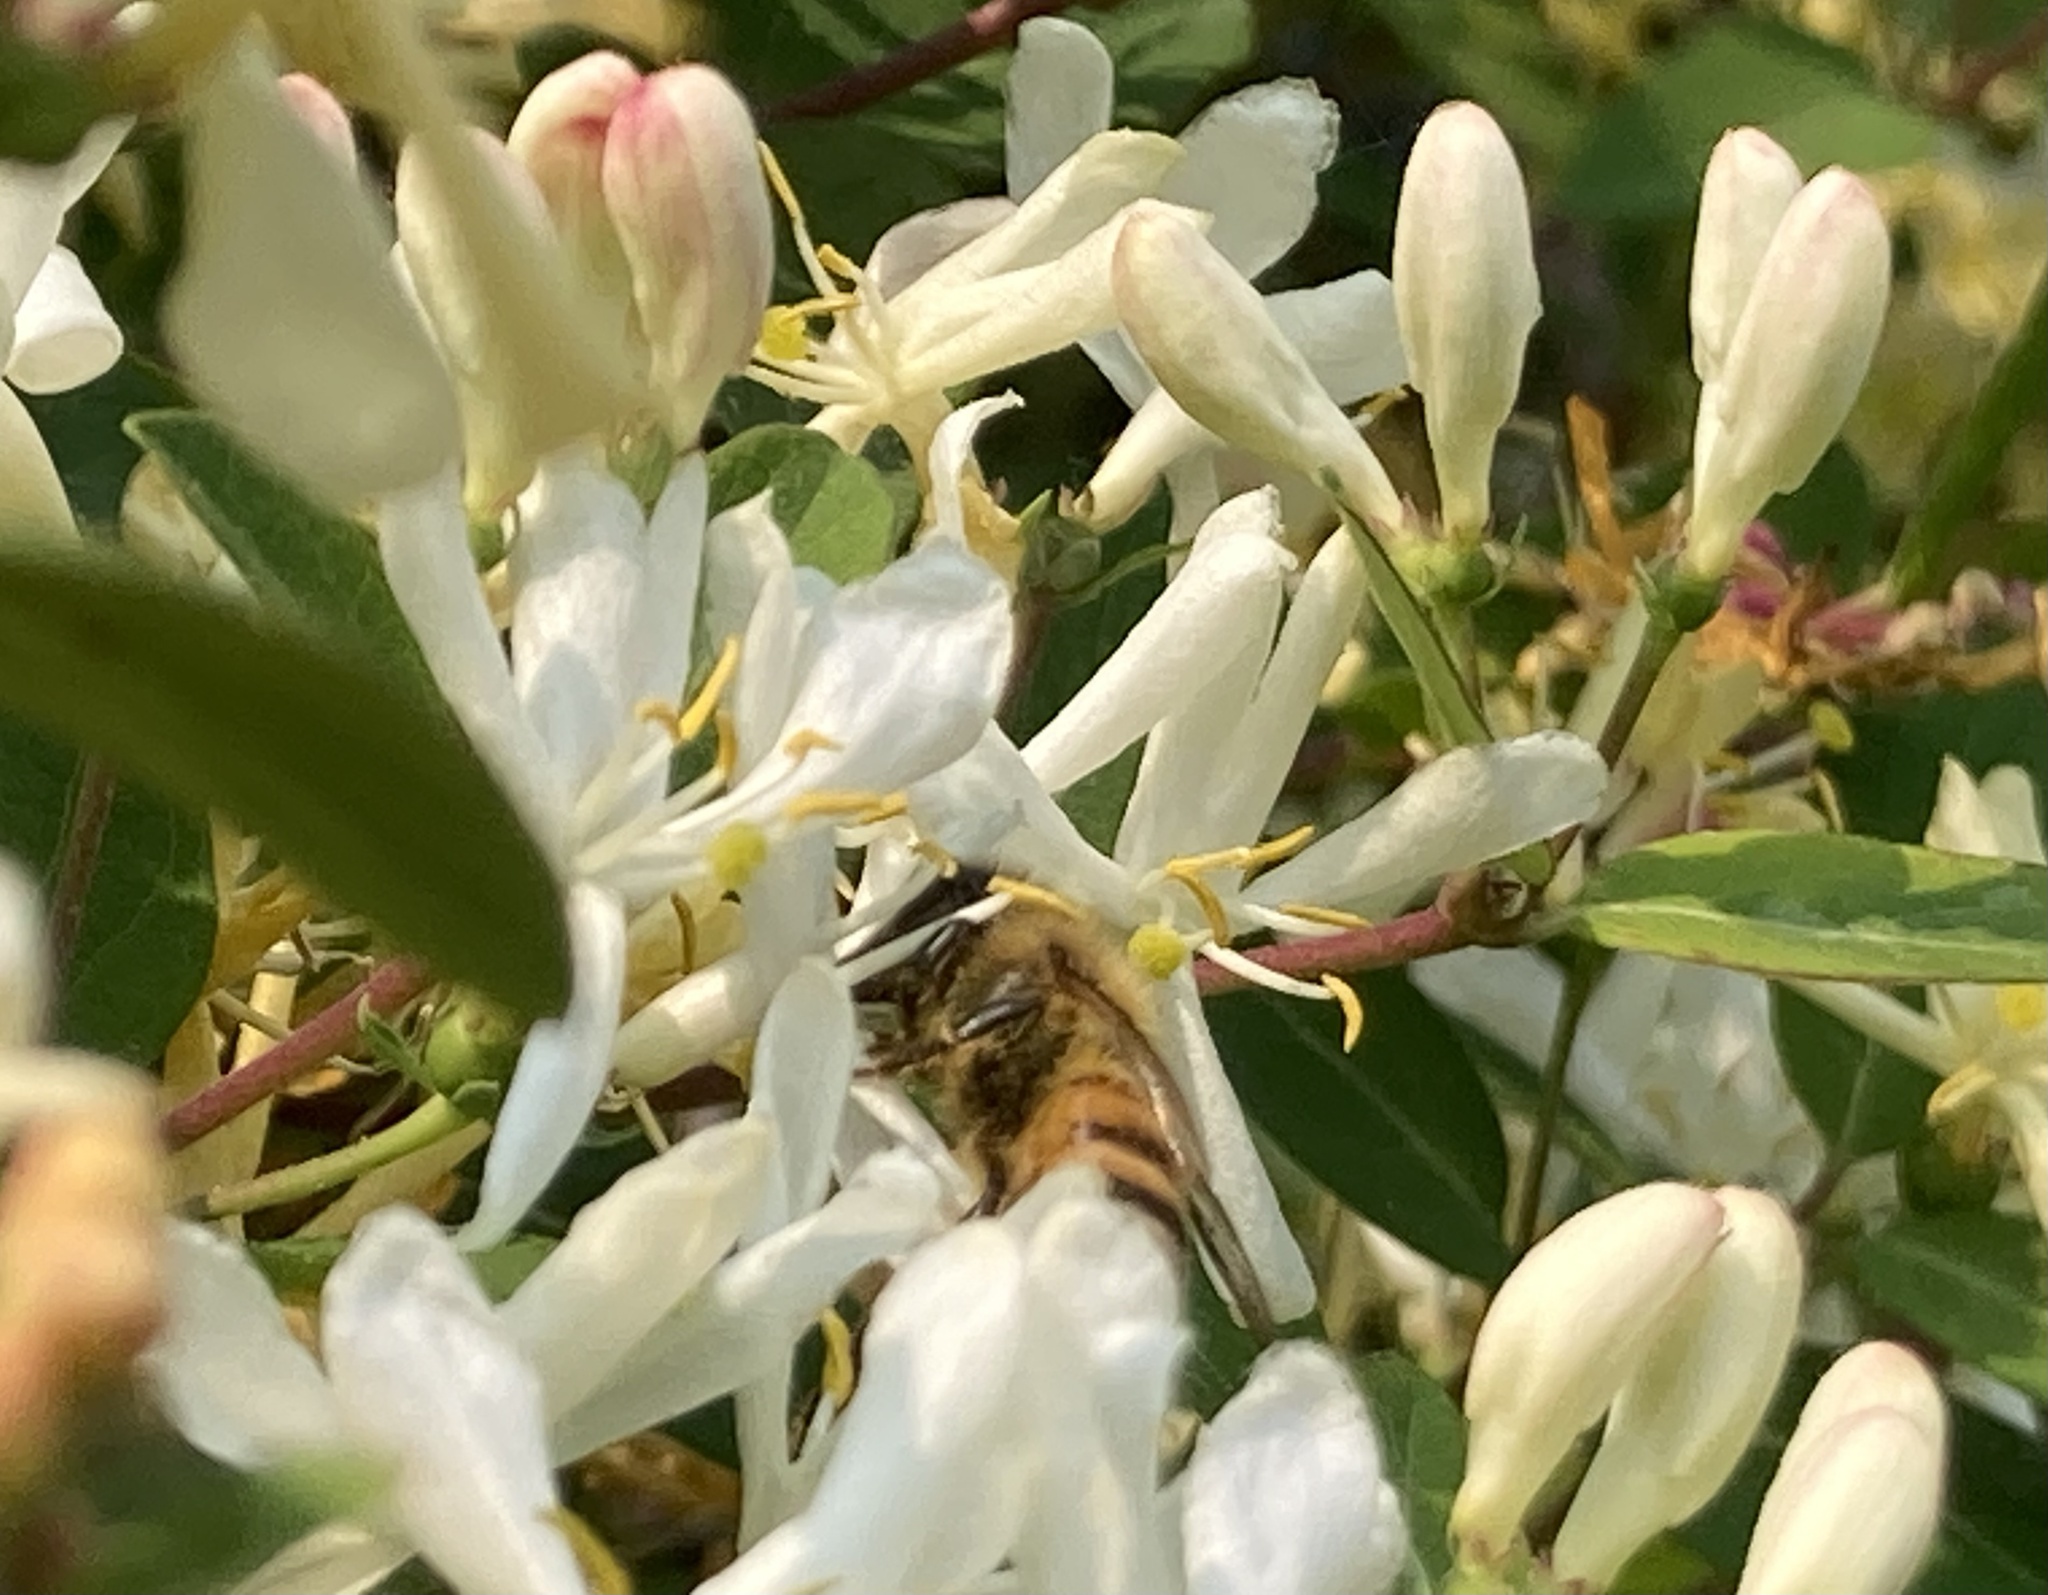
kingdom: Animalia
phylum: Arthropoda
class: Insecta
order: Hymenoptera
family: Apidae
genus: Apis
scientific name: Apis mellifera
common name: Honey bee
